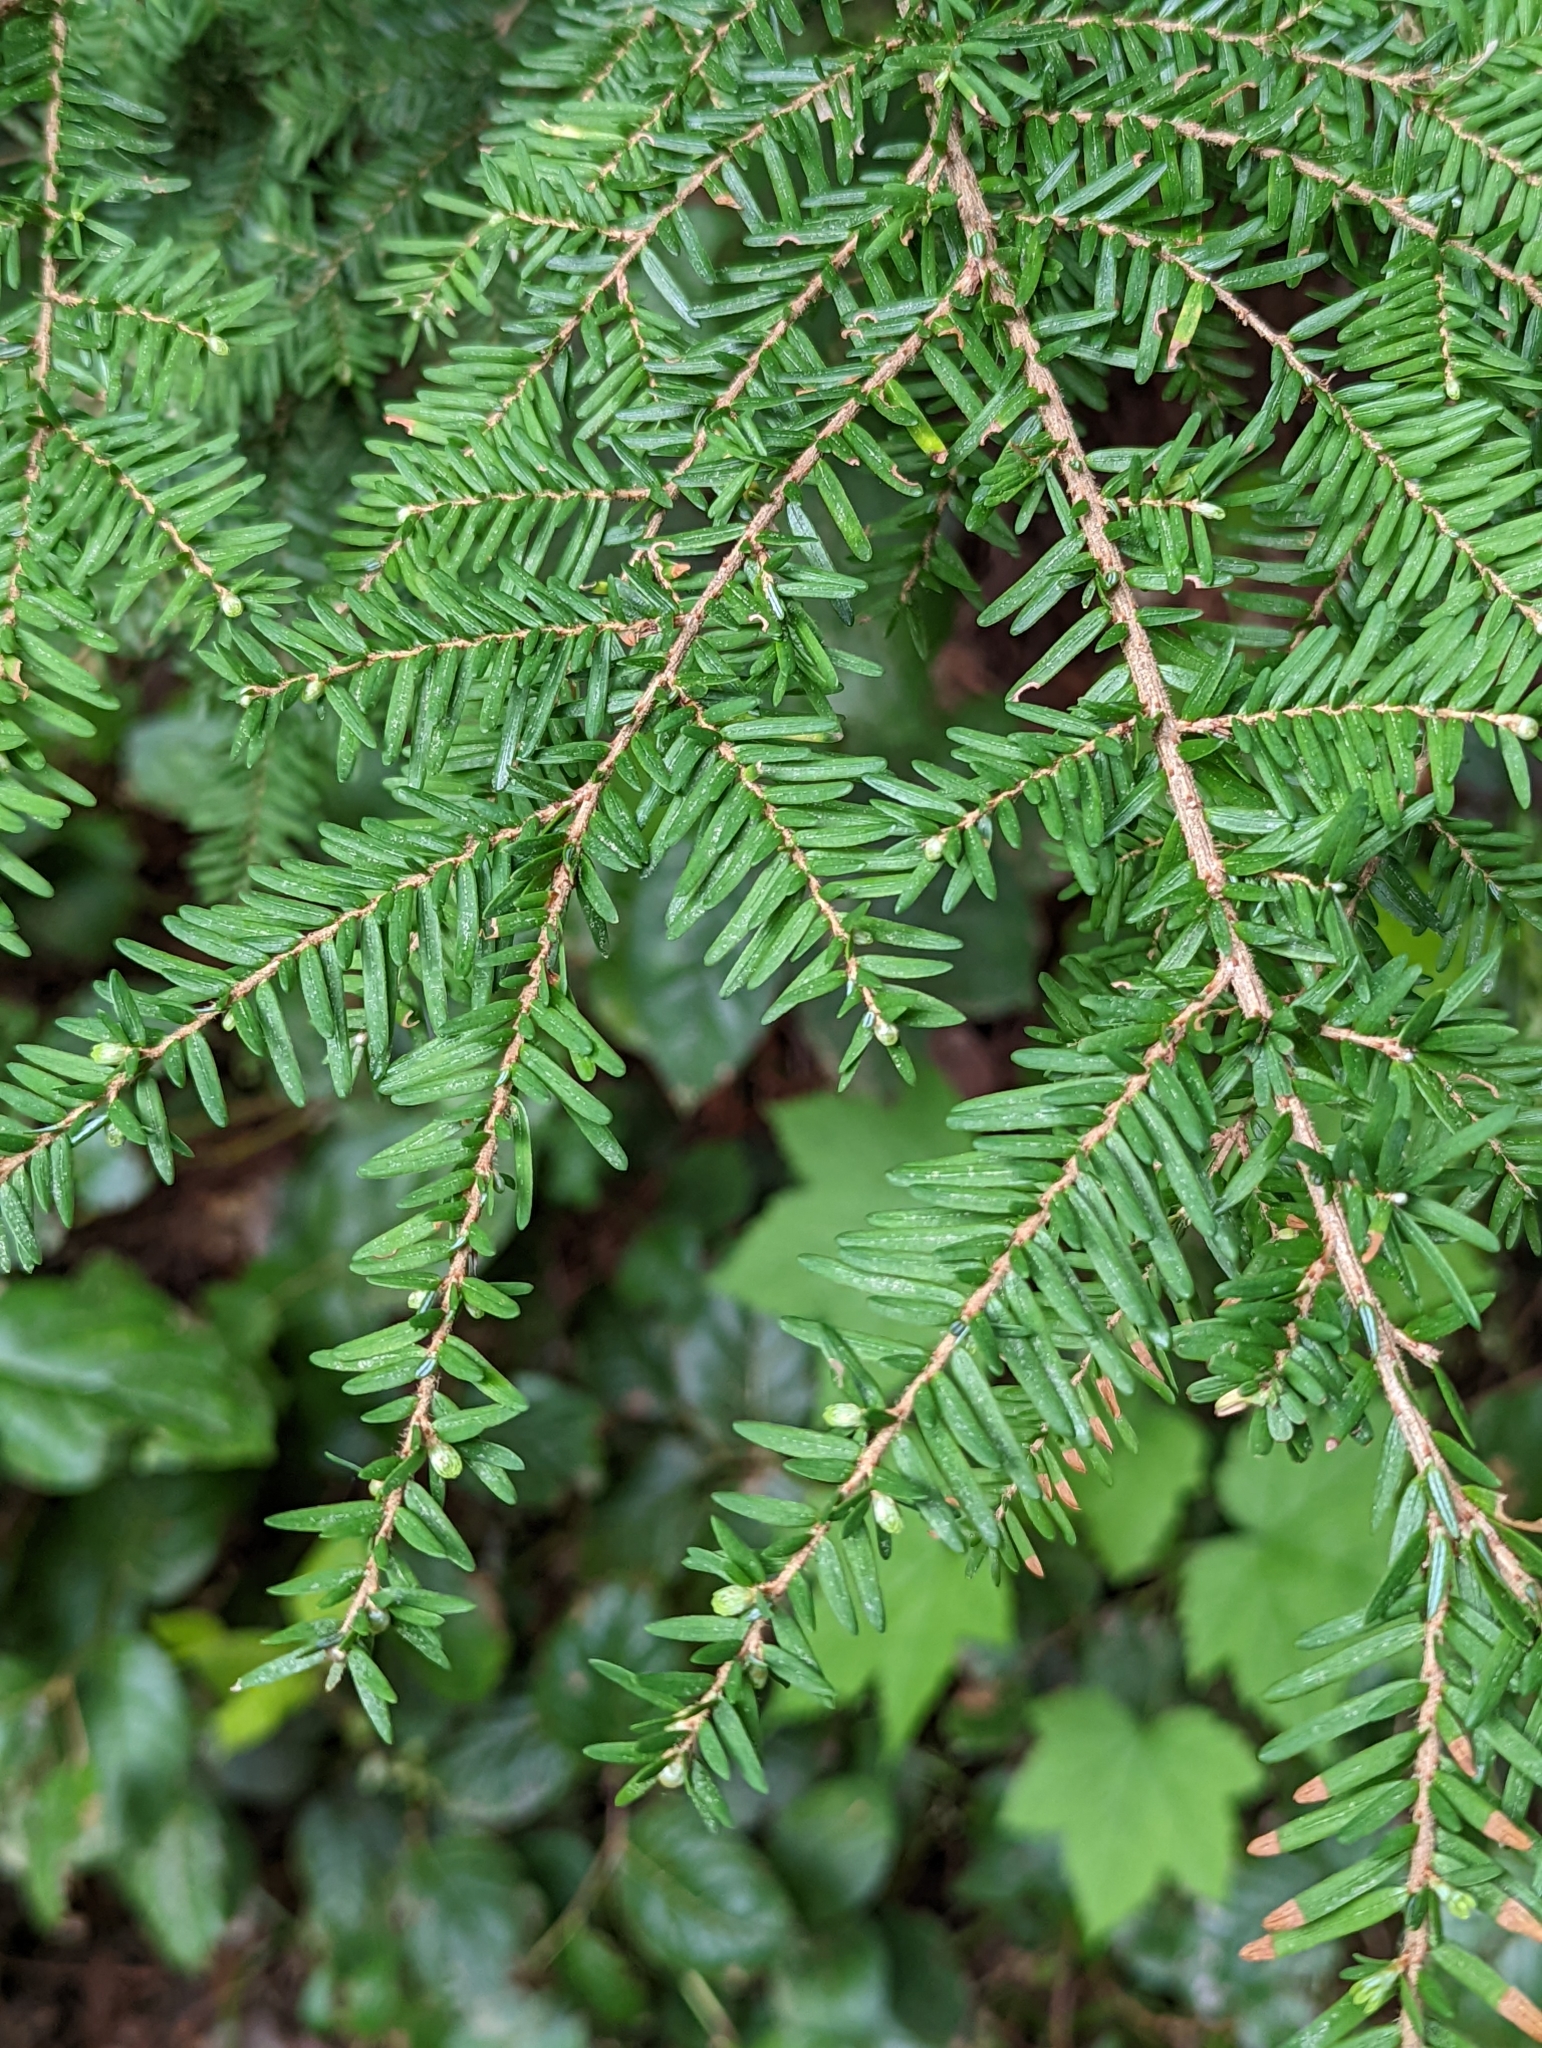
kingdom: Plantae
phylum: Tracheophyta
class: Pinopsida
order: Pinales
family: Pinaceae
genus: Tsuga
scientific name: Tsuga heterophylla
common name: Western hemlock
